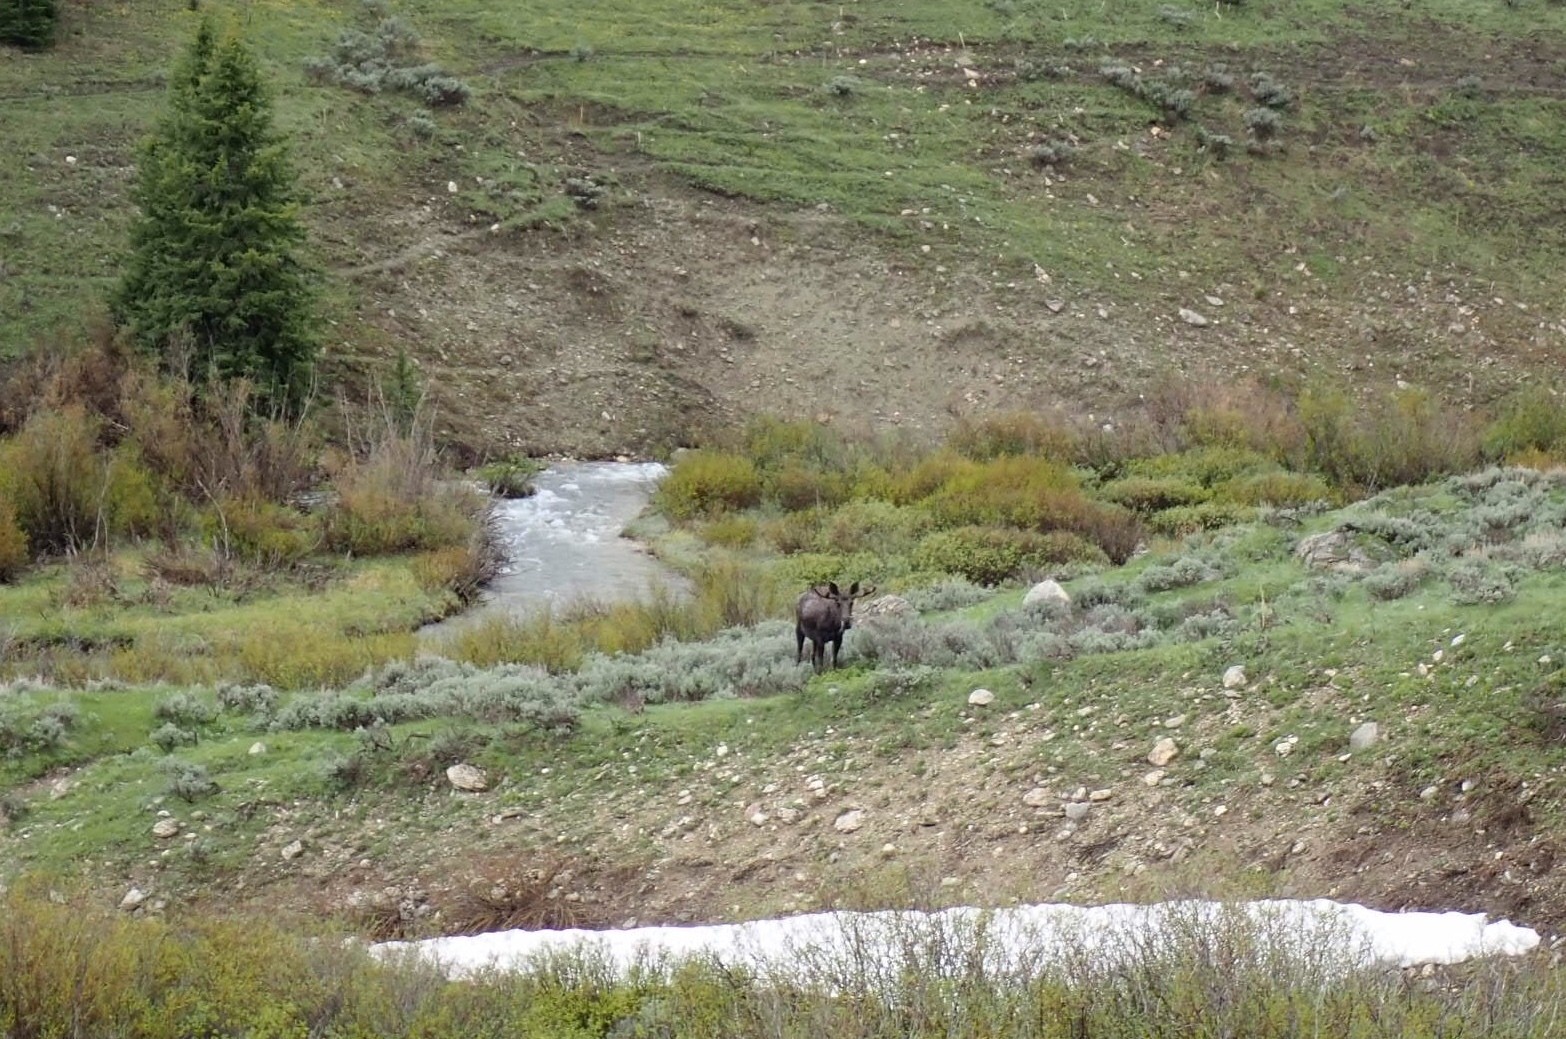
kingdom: Animalia
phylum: Chordata
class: Mammalia
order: Artiodactyla
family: Cervidae
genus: Alces
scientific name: Alces alces
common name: Moose
